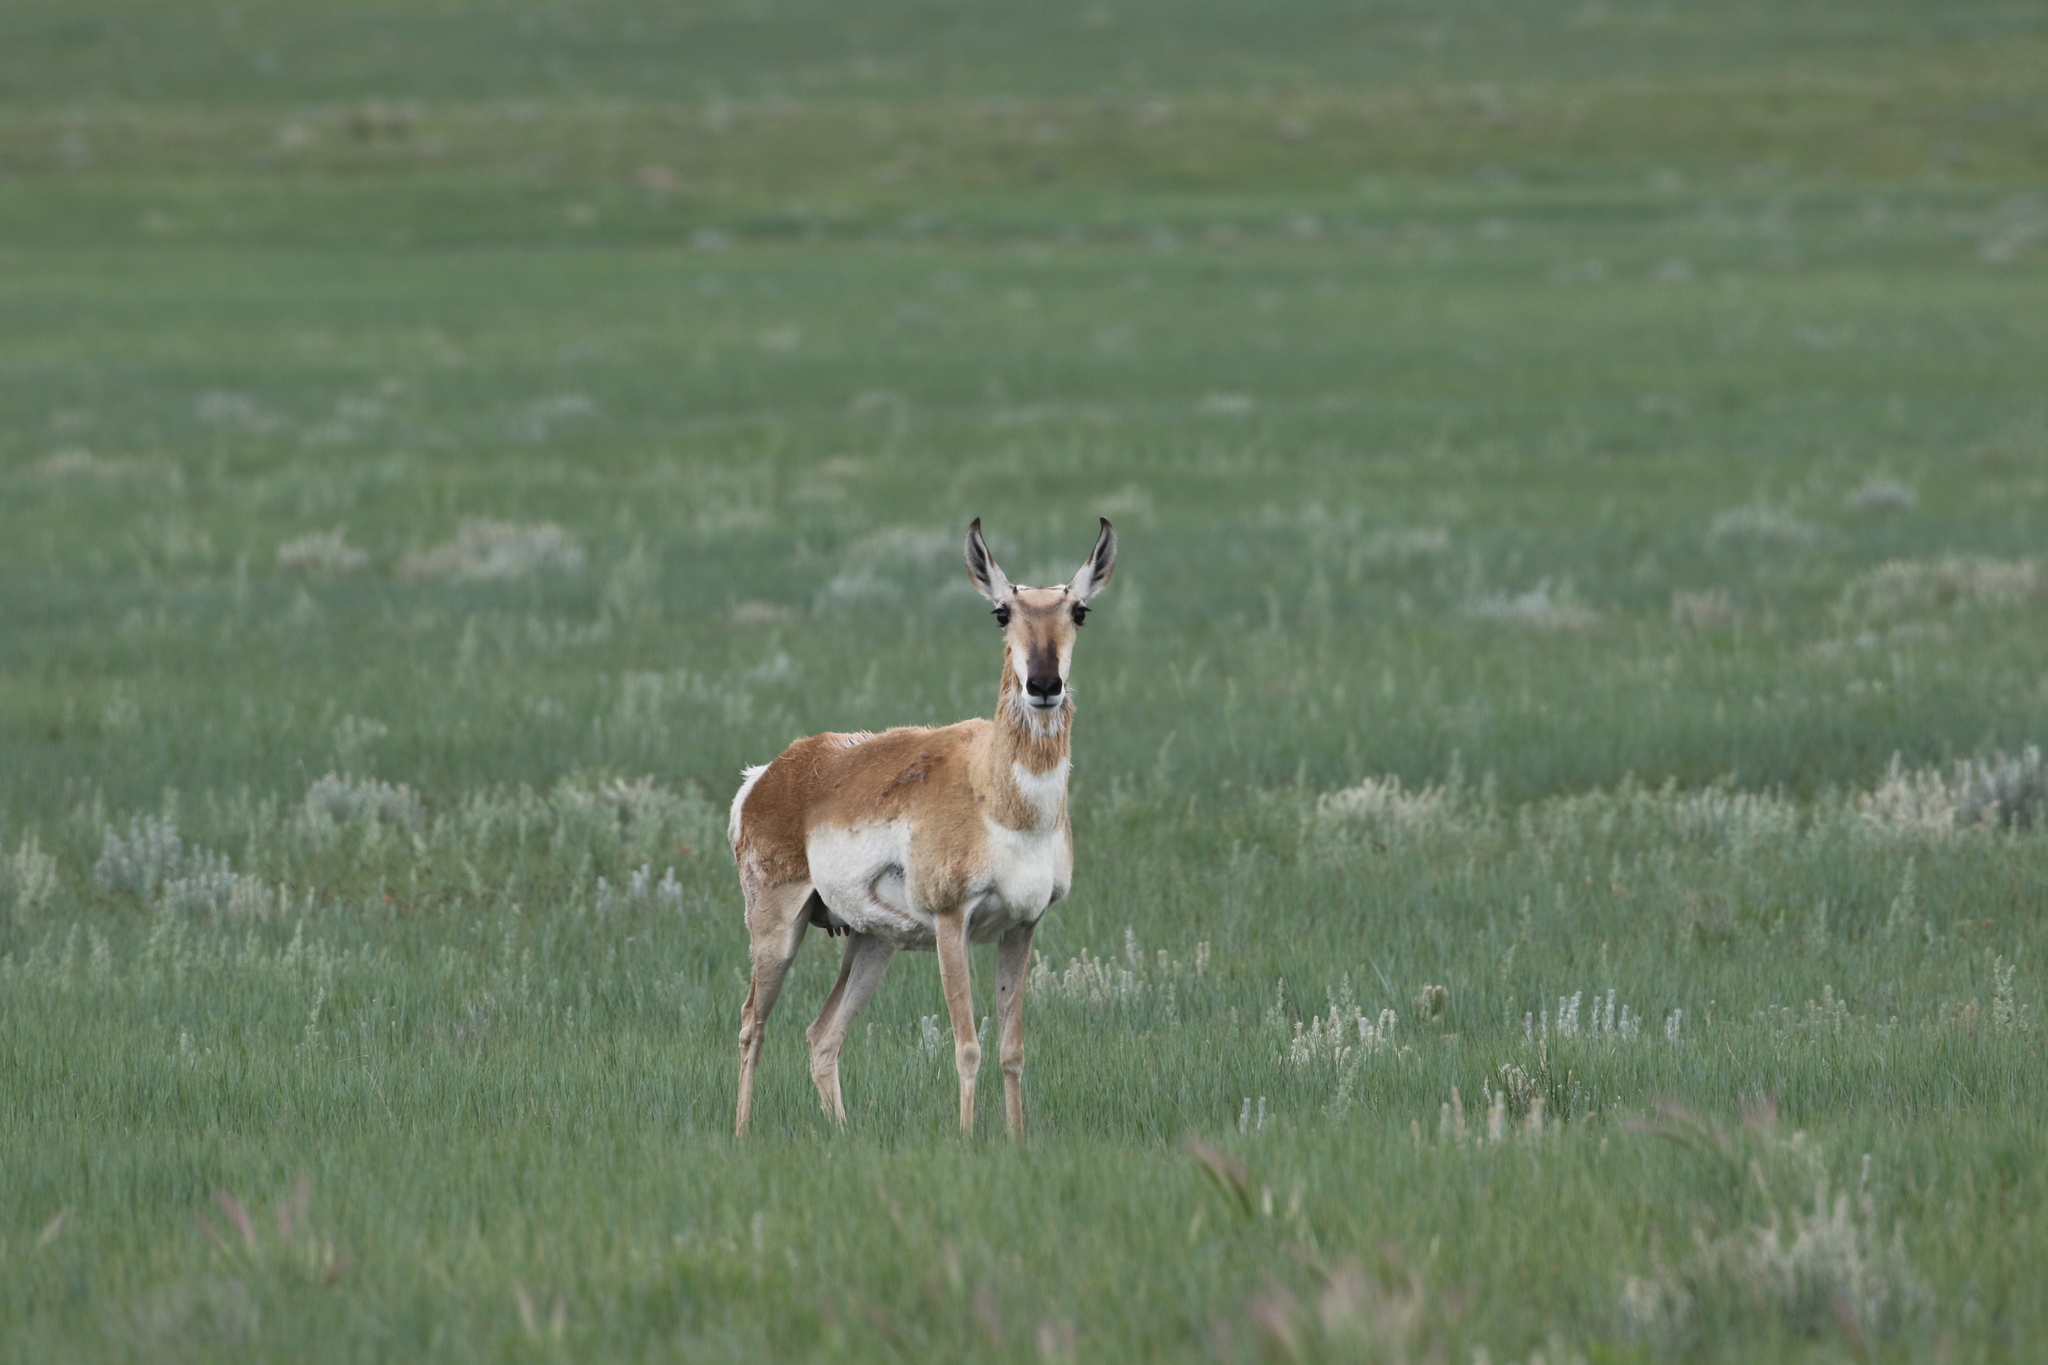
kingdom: Animalia
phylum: Chordata
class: Mammalia
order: Artiodactyla
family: Antilocapridae
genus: Antilocapra
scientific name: Antilocapra americana
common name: Pronghorn
